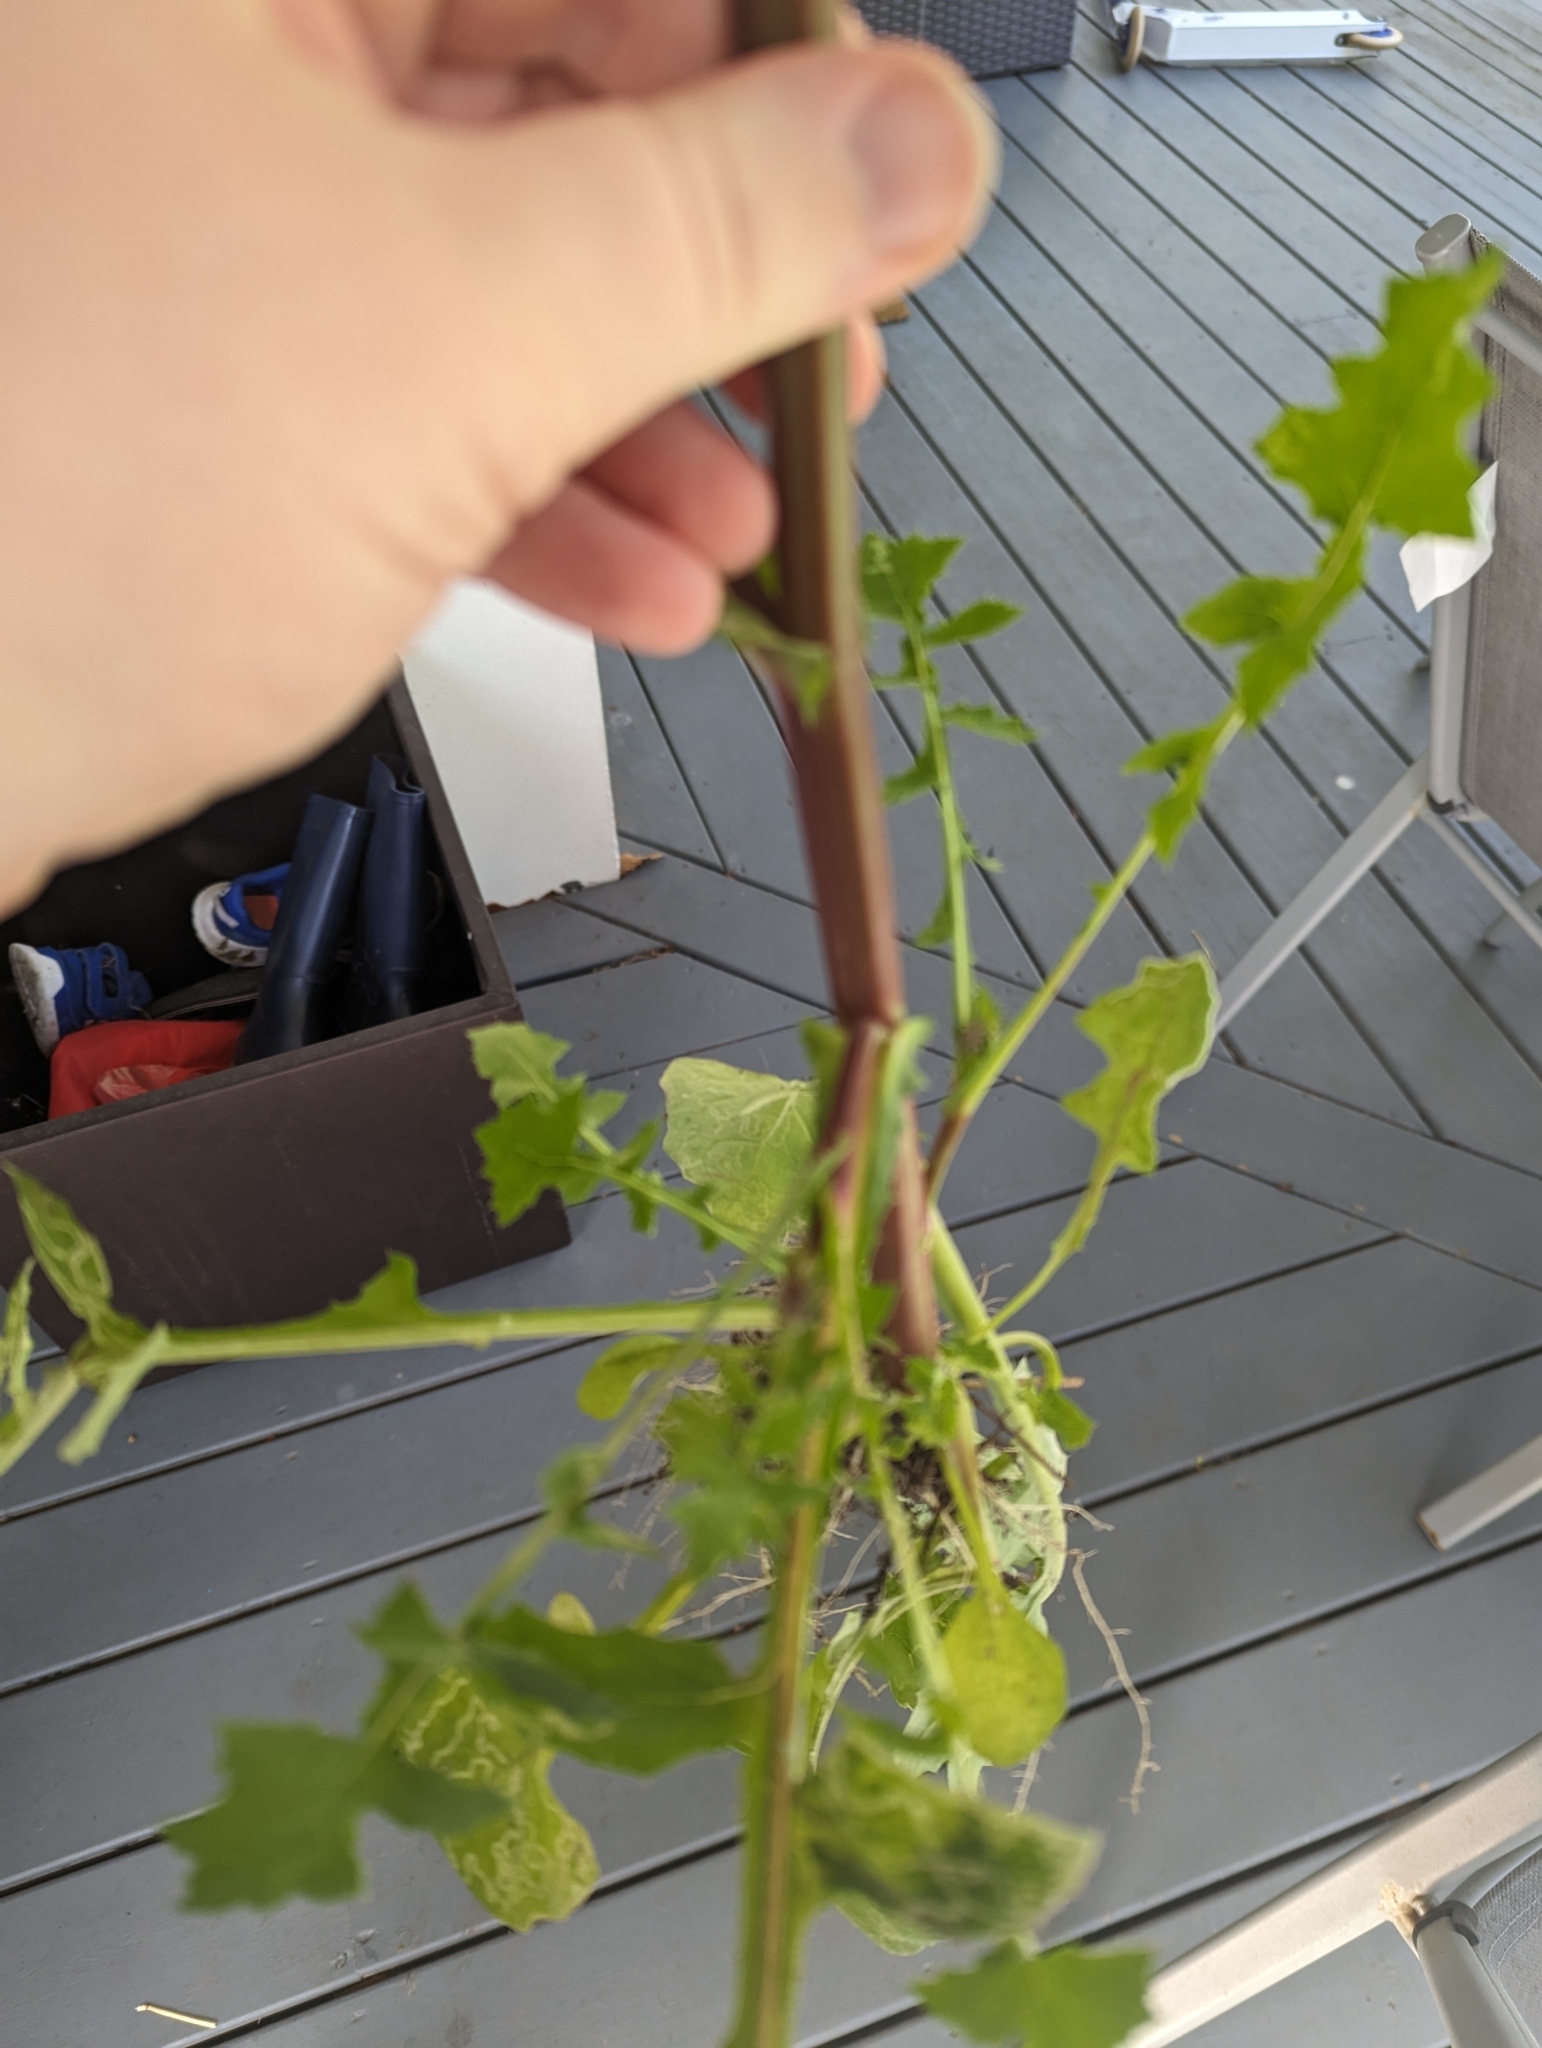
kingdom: Plantae
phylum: Tracheophyta
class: Magnoliopsida
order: Asterales
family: Asteraceae
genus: Sonchus
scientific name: Sonchus oleraceus
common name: Common sowthistle
